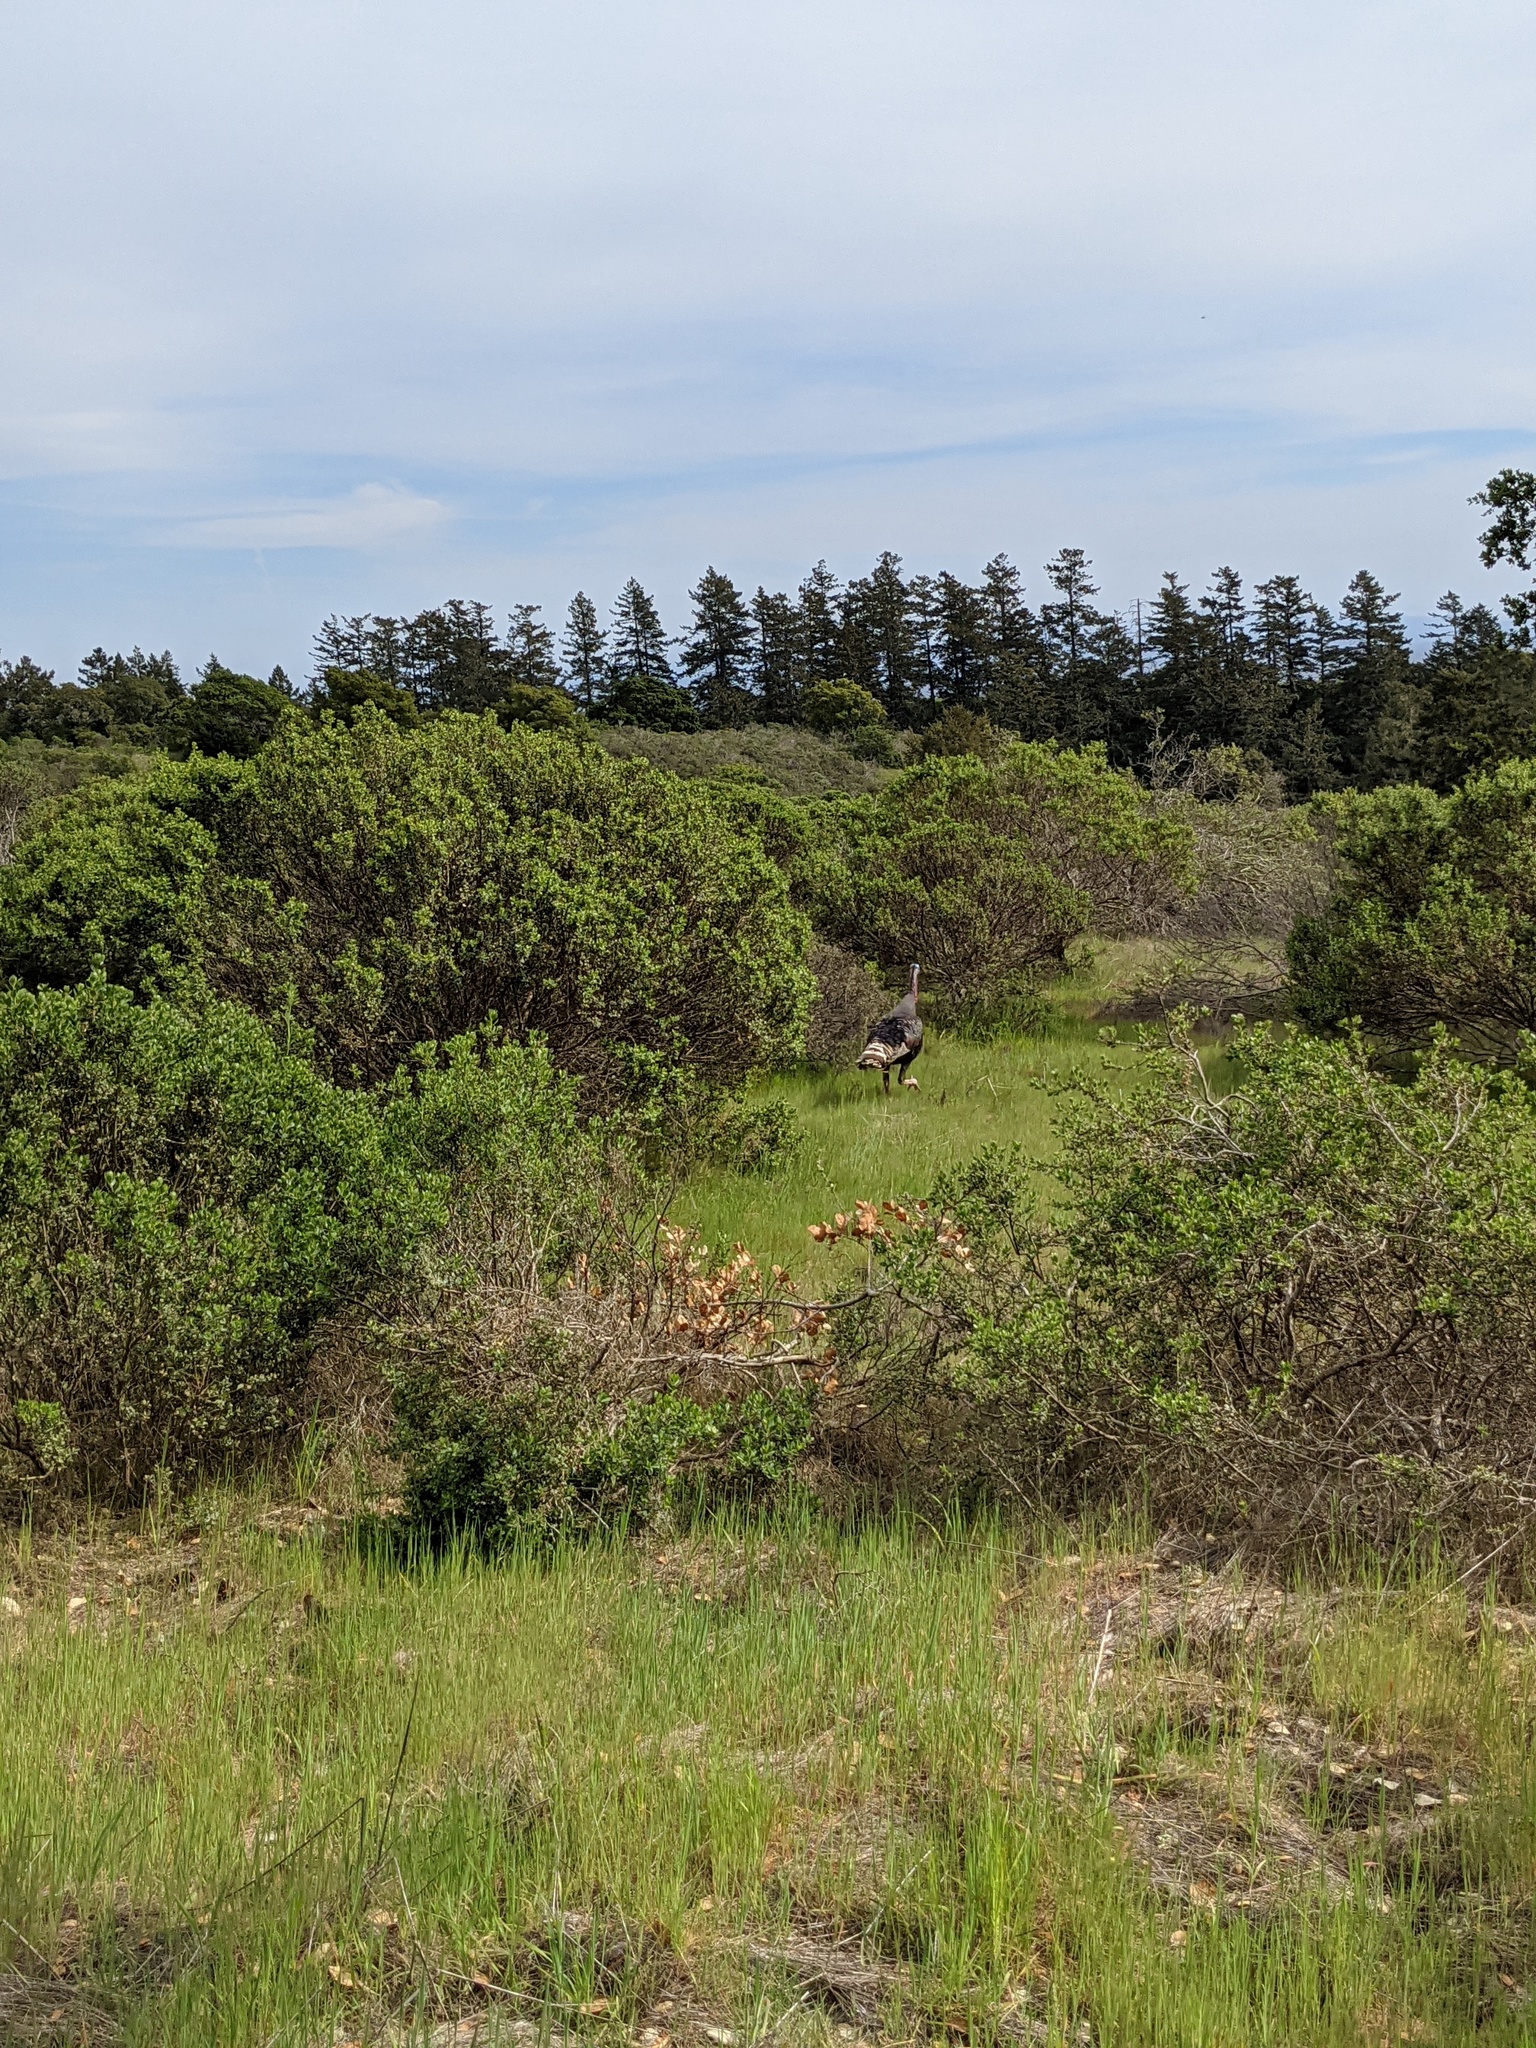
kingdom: Animalia
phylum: Chordata
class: Aves
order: Galliformes
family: Phasianidae
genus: Meleagris
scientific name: Meleagris gallopavo
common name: Wild turkey
